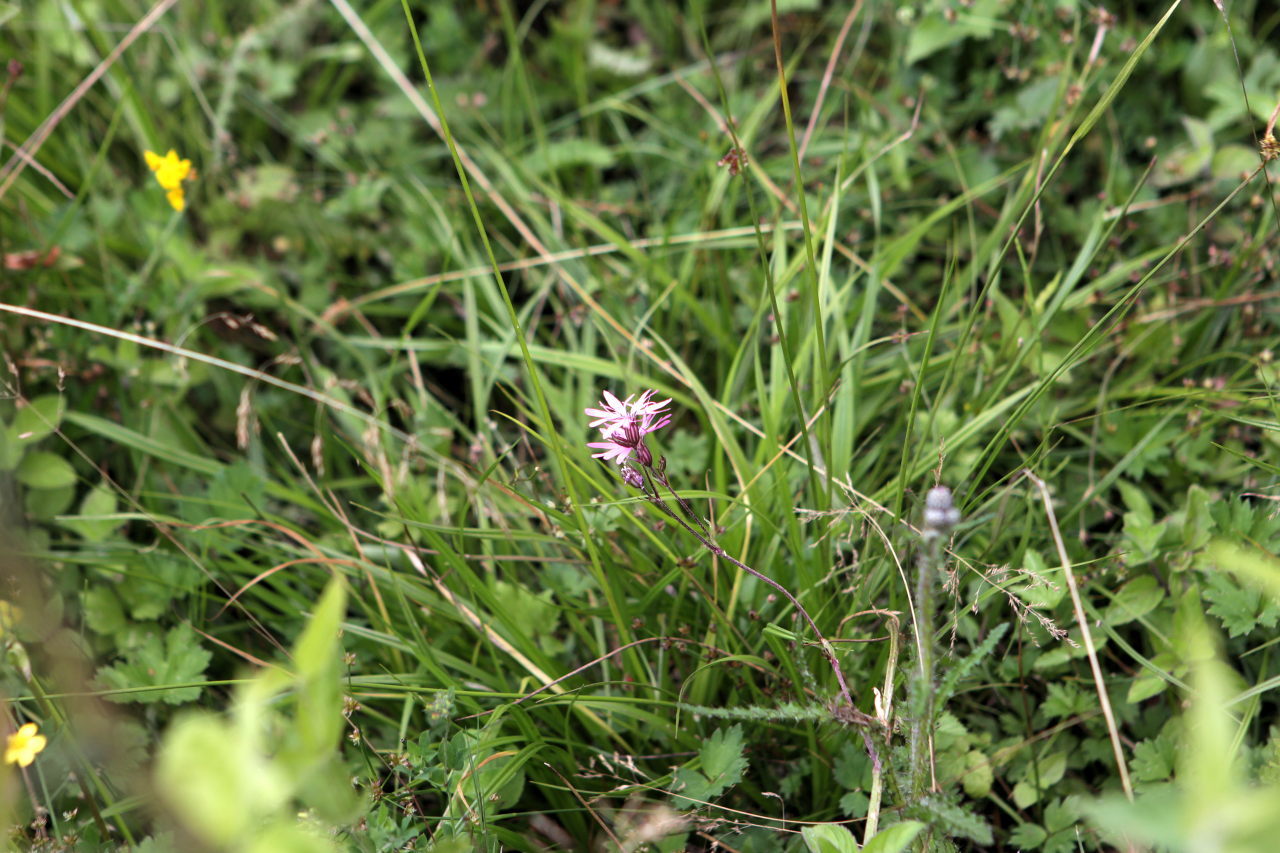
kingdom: Plantae
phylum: Tracheophyta
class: Magnoliopsida
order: Caryophyllales
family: Caryophyllaceae
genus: Silene
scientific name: Silene flos-cuculi
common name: Ragged-robin
